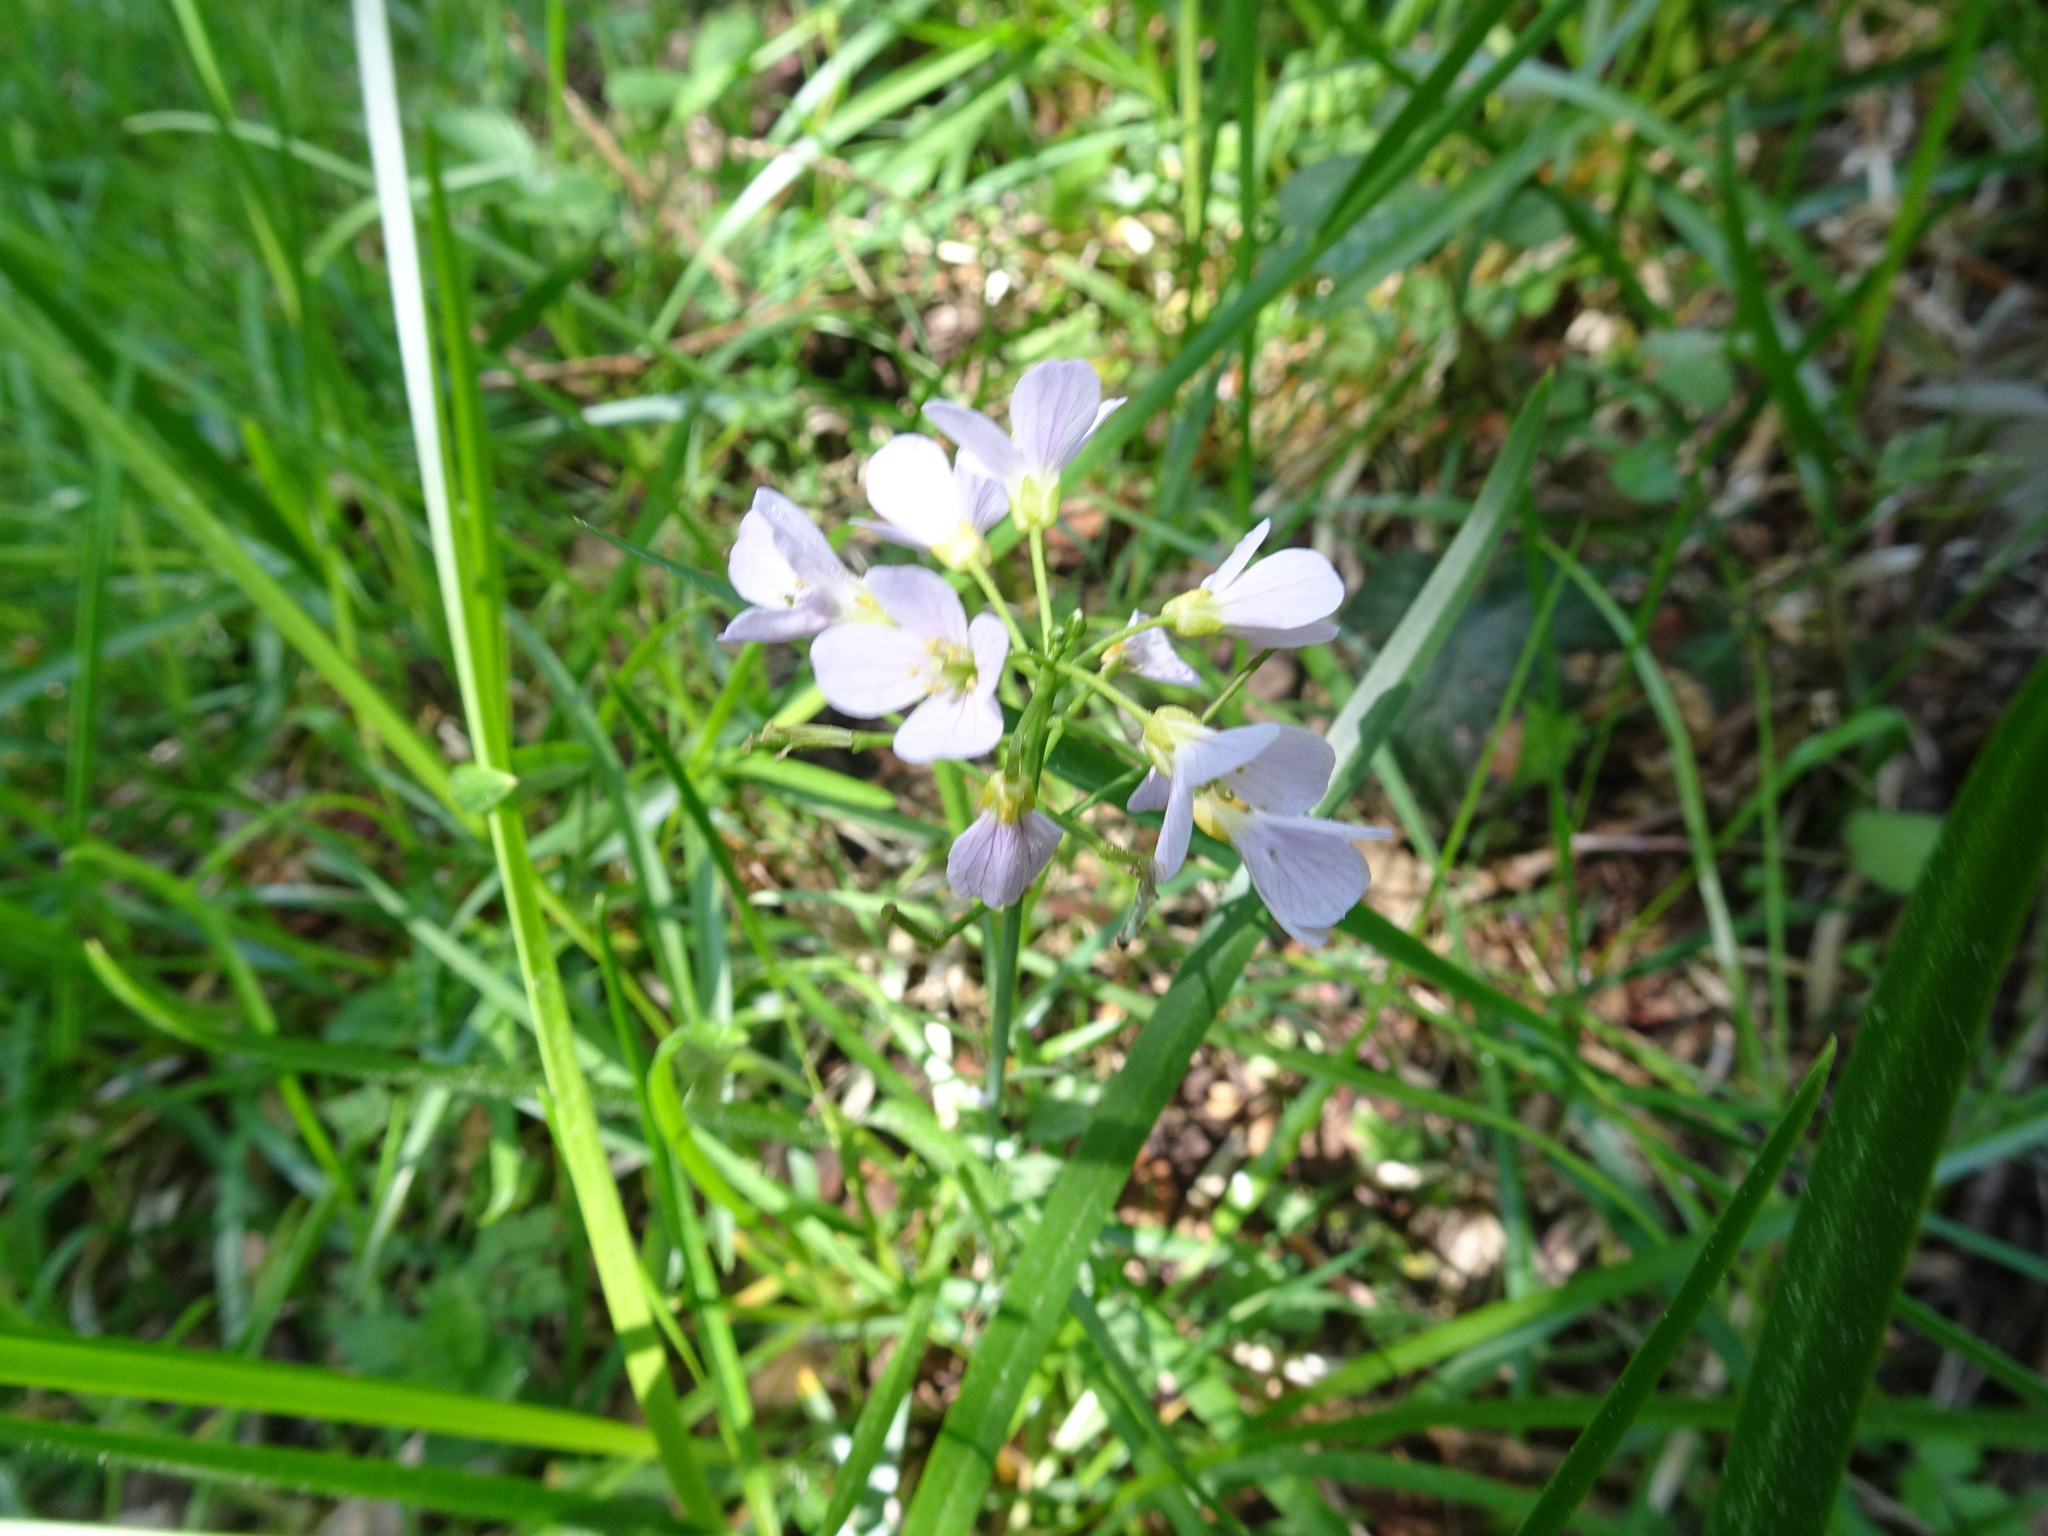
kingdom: Plantae
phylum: Tracheophyta
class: Magnoliopsida
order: Brassicales
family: Brassicaceae
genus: Cardamine
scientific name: Cardamine pratensis
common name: Cuckoo flower
